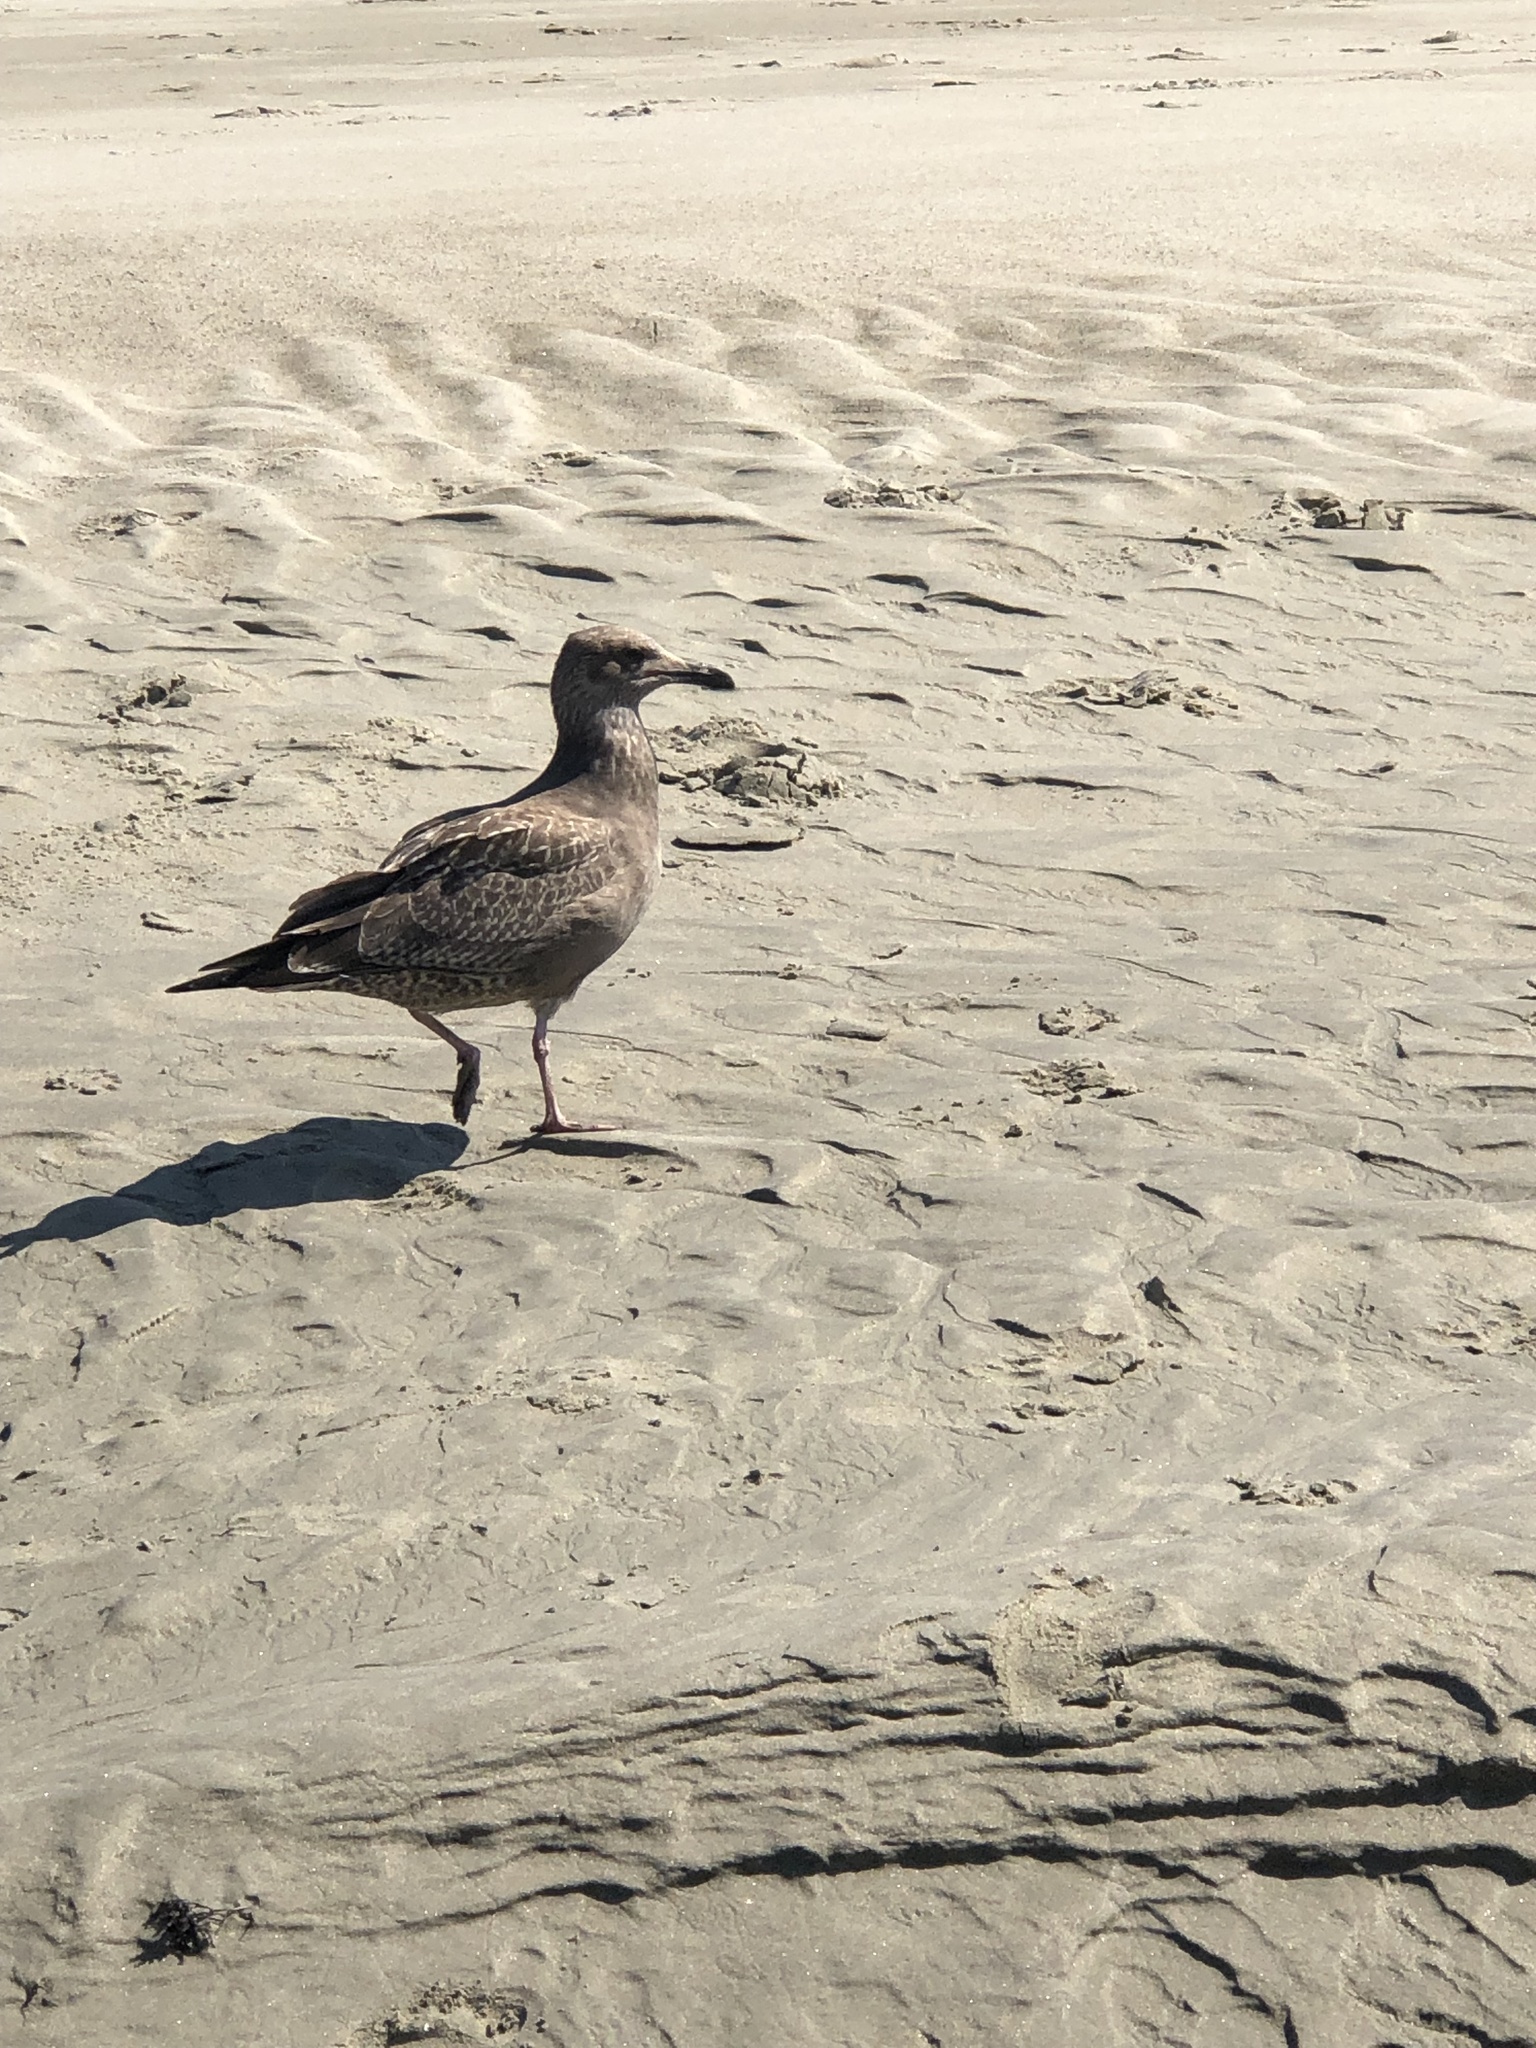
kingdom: Animalia
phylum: Chordata
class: Aves
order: Charadriiformes
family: Laridae
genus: Larus
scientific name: Larus argentatus
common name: Herring gull
